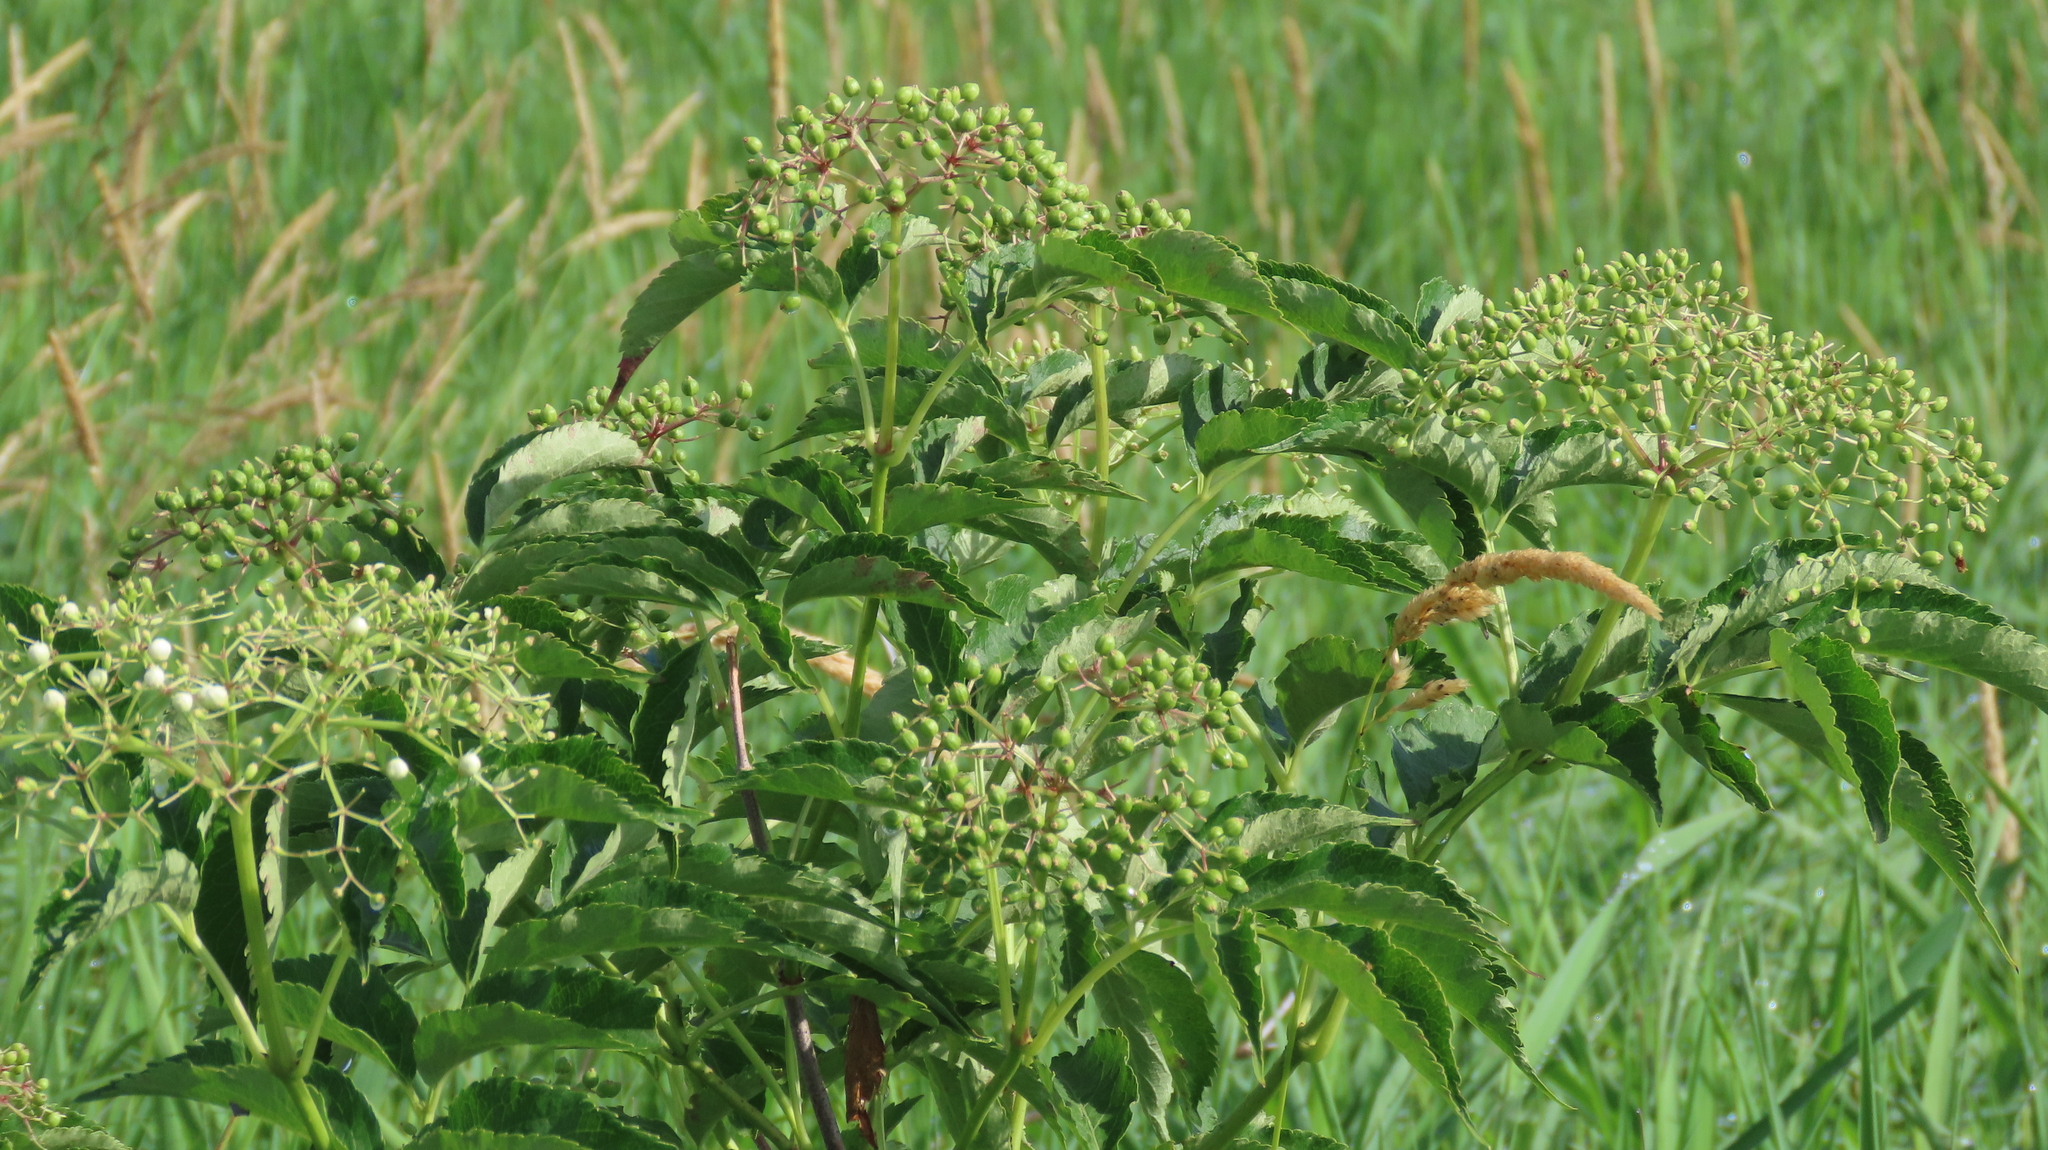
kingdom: Plantae
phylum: Tracheophyta
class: Magnoliopsida
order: Dipsacales
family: Viburnaceae
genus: Sambucus
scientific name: Sambucus canadensis
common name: American elder
